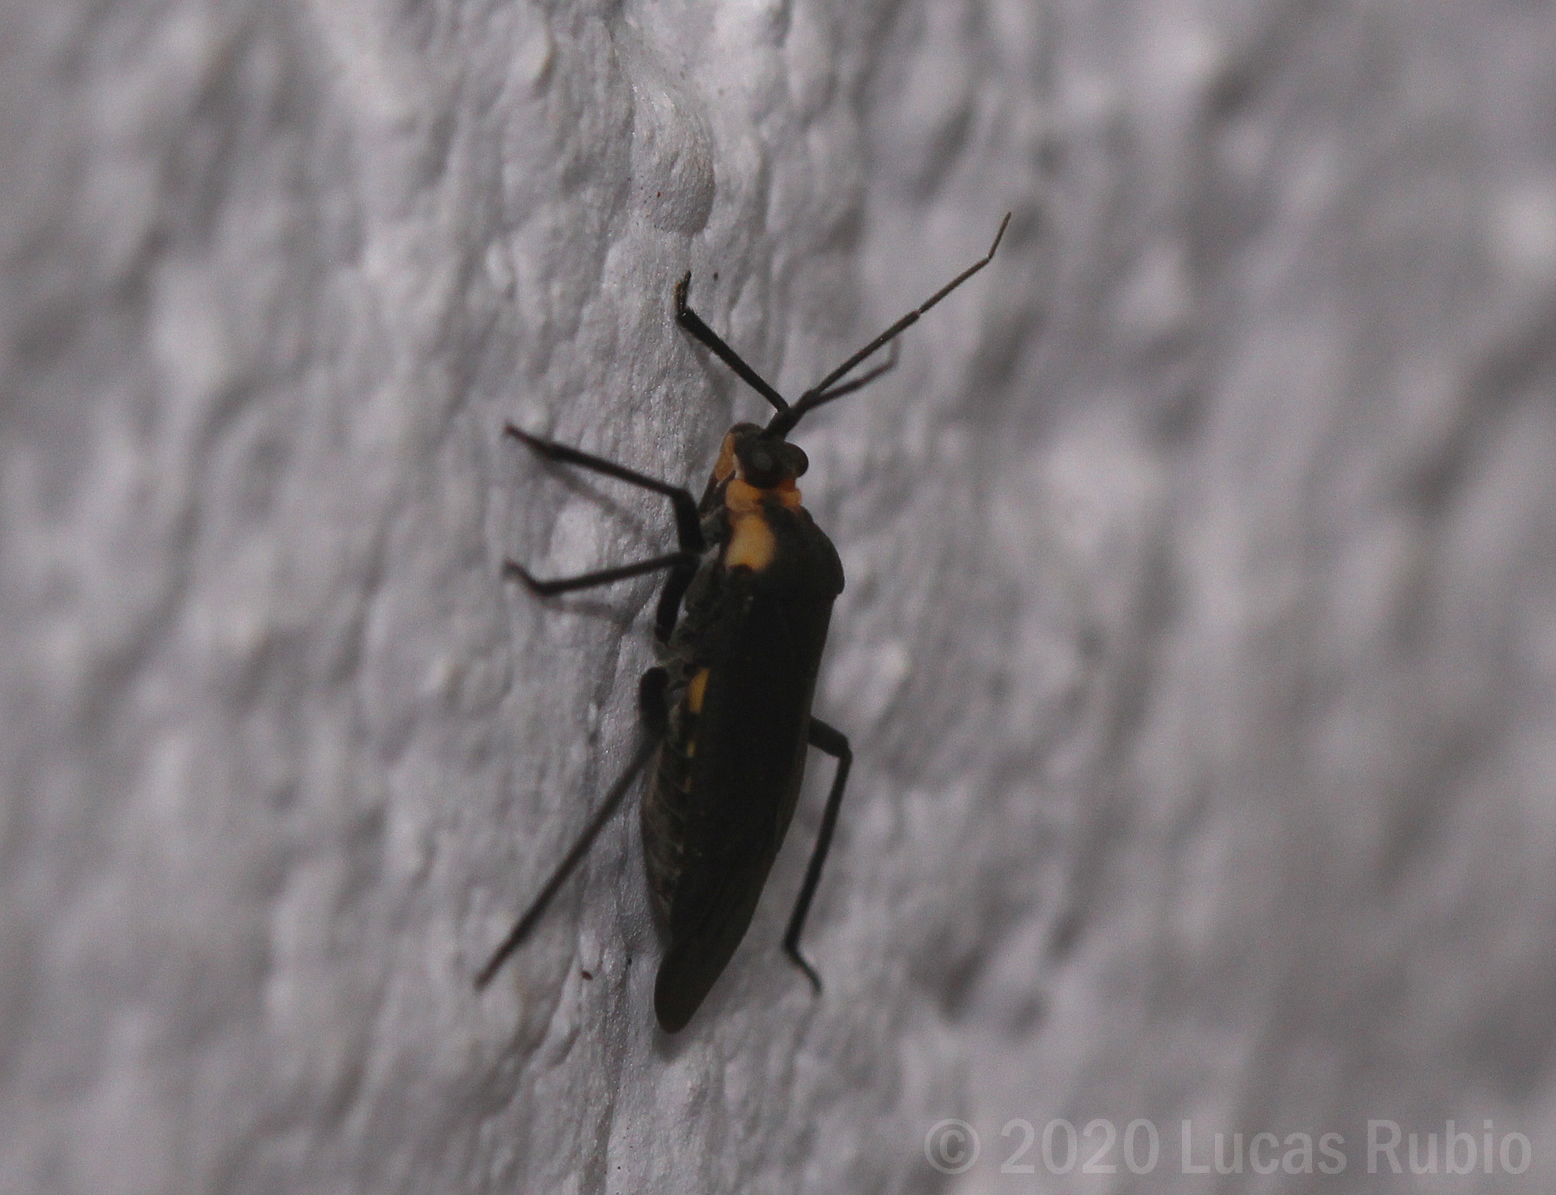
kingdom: Animalia
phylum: Arthropoda
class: Insecta
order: Hemiptera
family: Miridae
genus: Prepops
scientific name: Prepops circummaculatus
